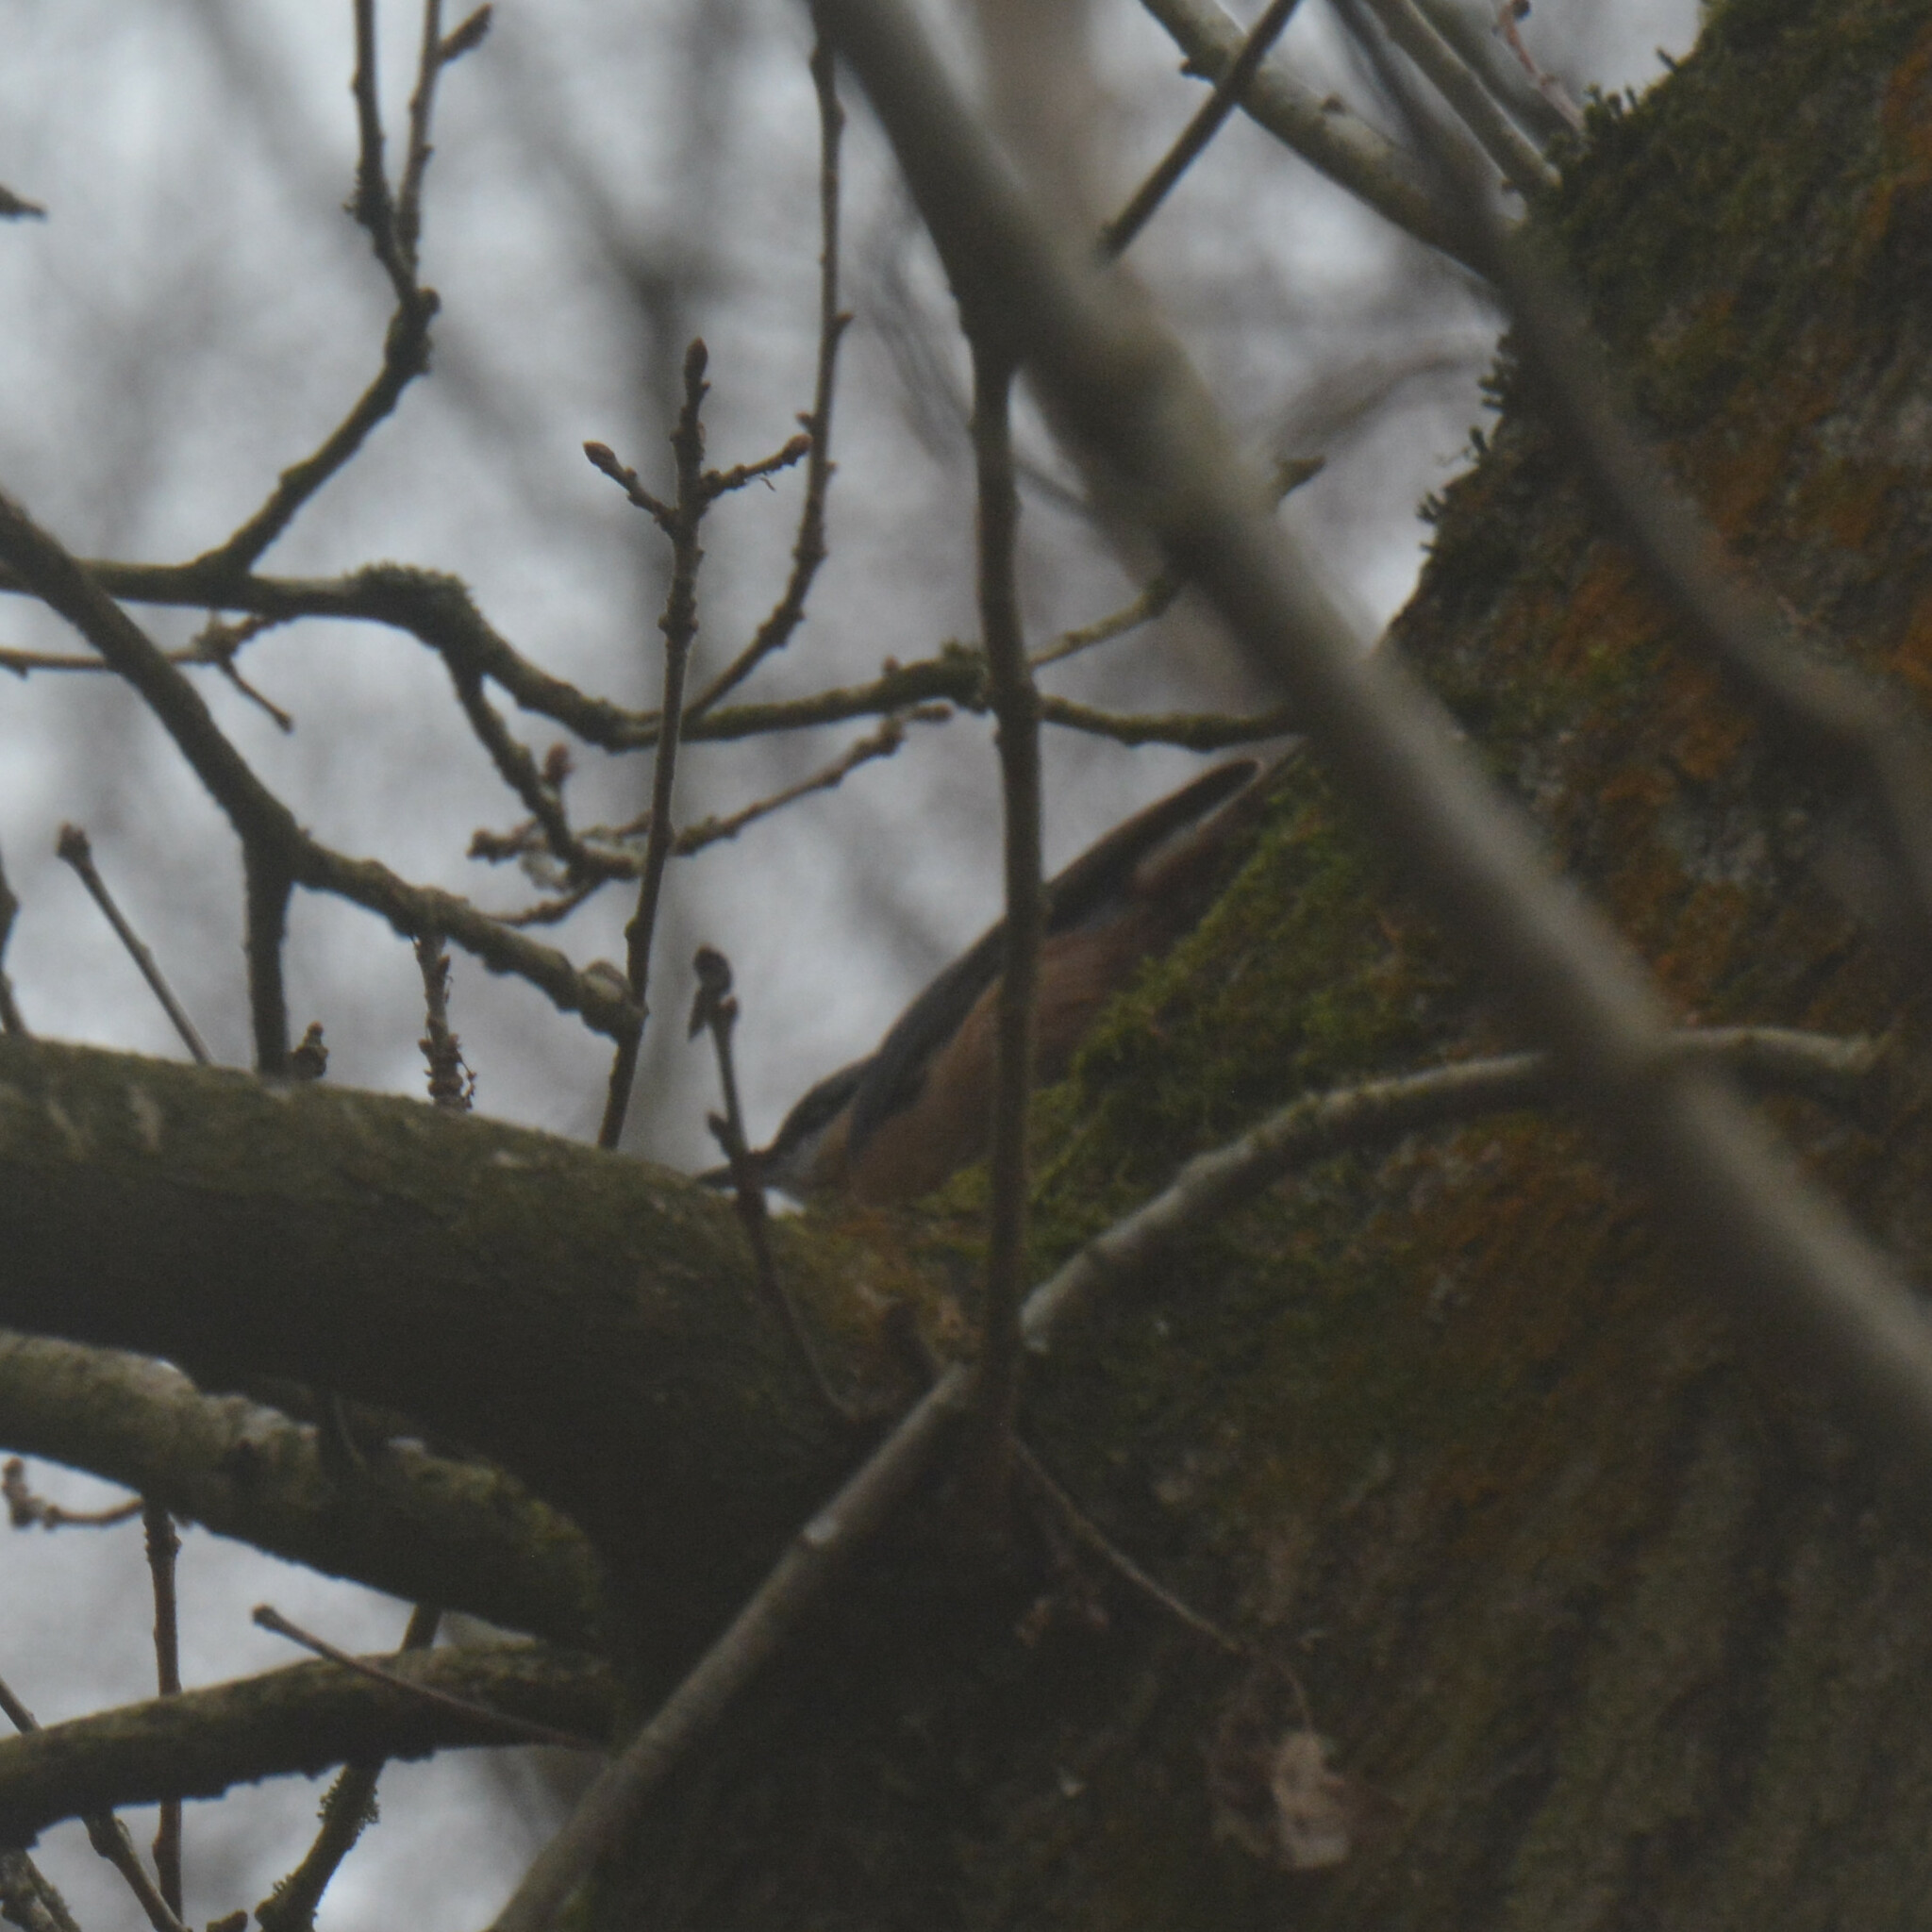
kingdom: Animalia
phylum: Chordata
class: Aves
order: Passeriformes
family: Sittidae
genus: Sitta
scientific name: Sitta europaea
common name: Eurasian nuthatch
